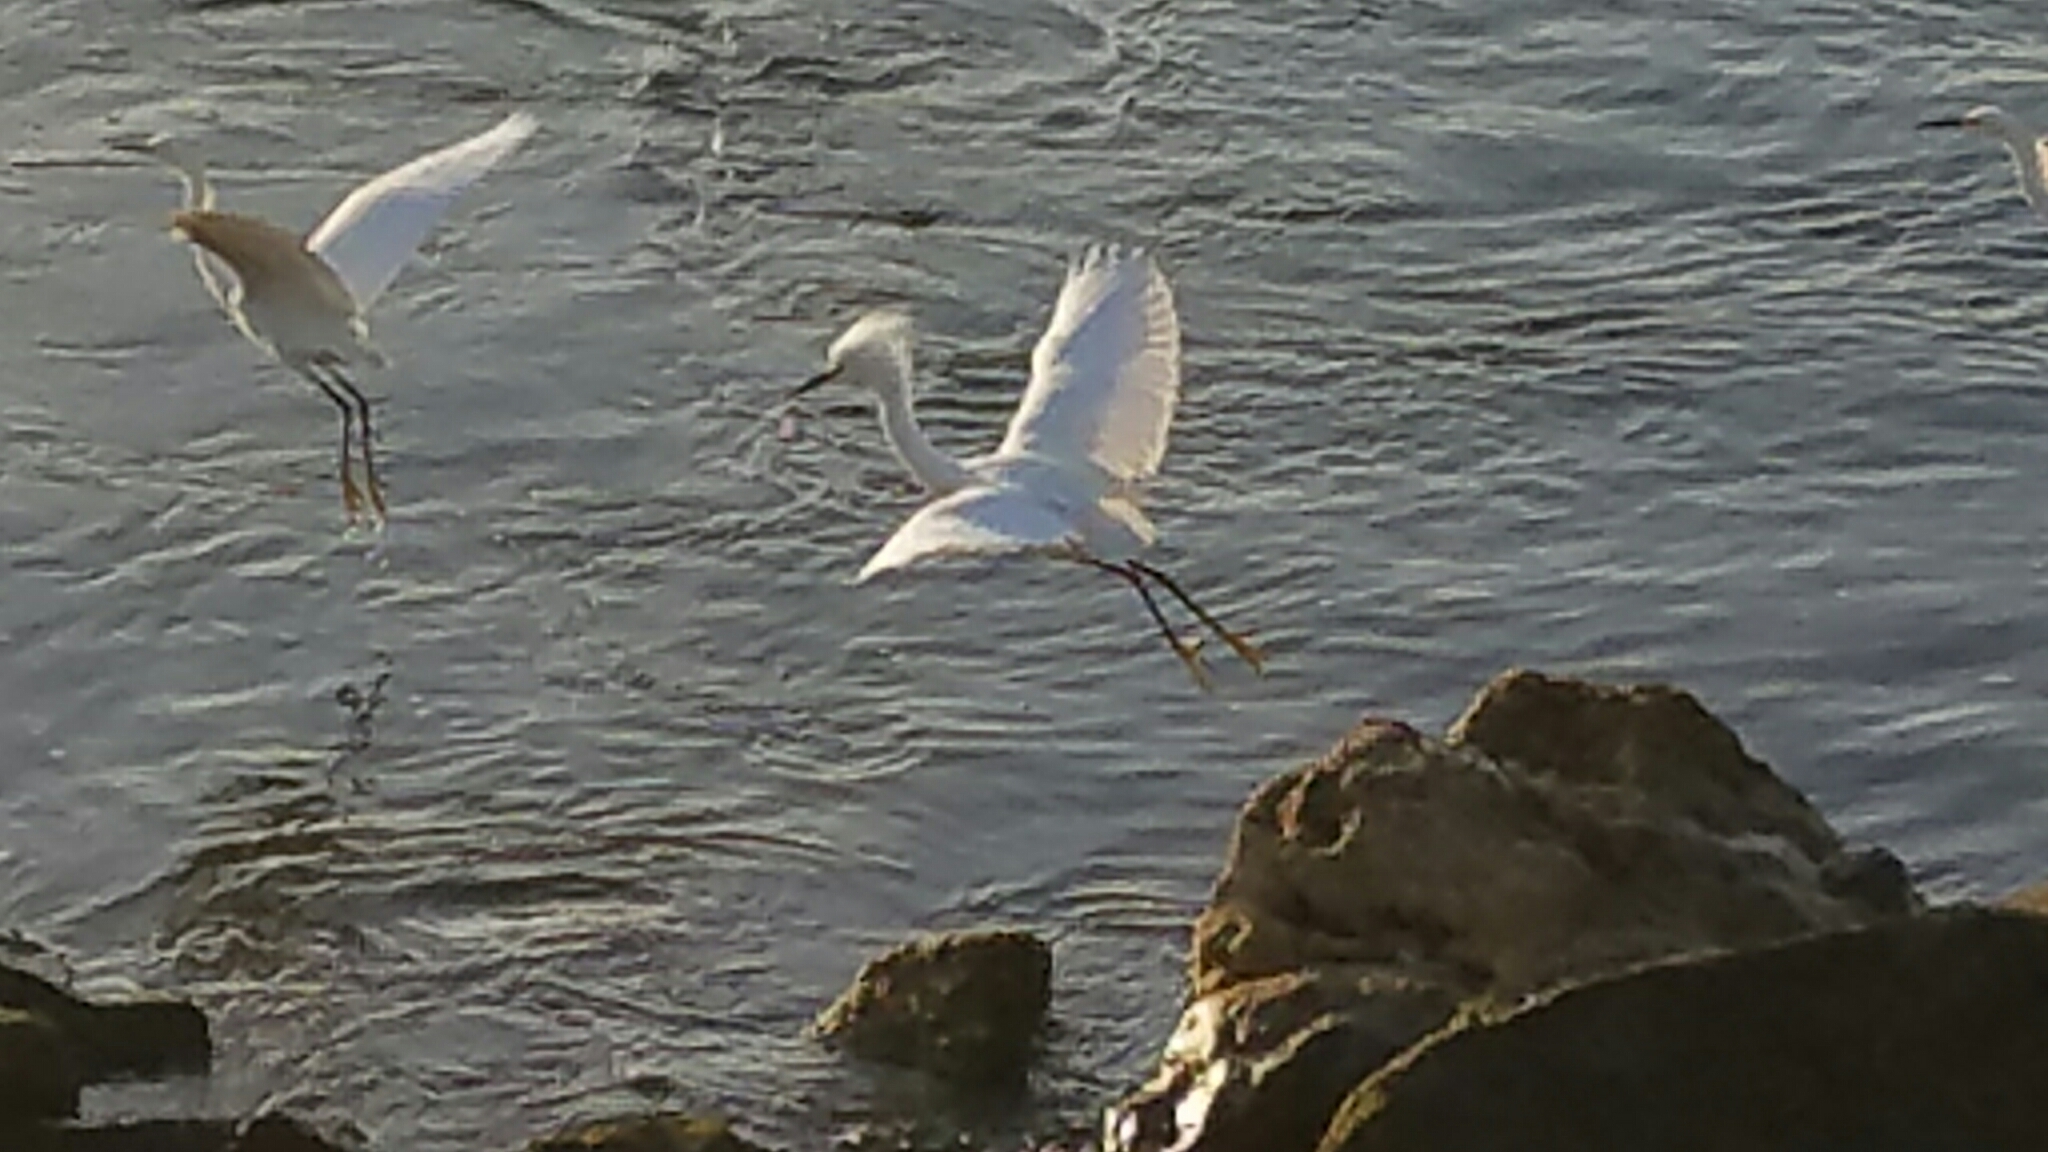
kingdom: Animalia
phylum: Chordata
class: Aves
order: Pelecaniformes
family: Ardeidae
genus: Egretta
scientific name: Egretta thula
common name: Snowy egret
